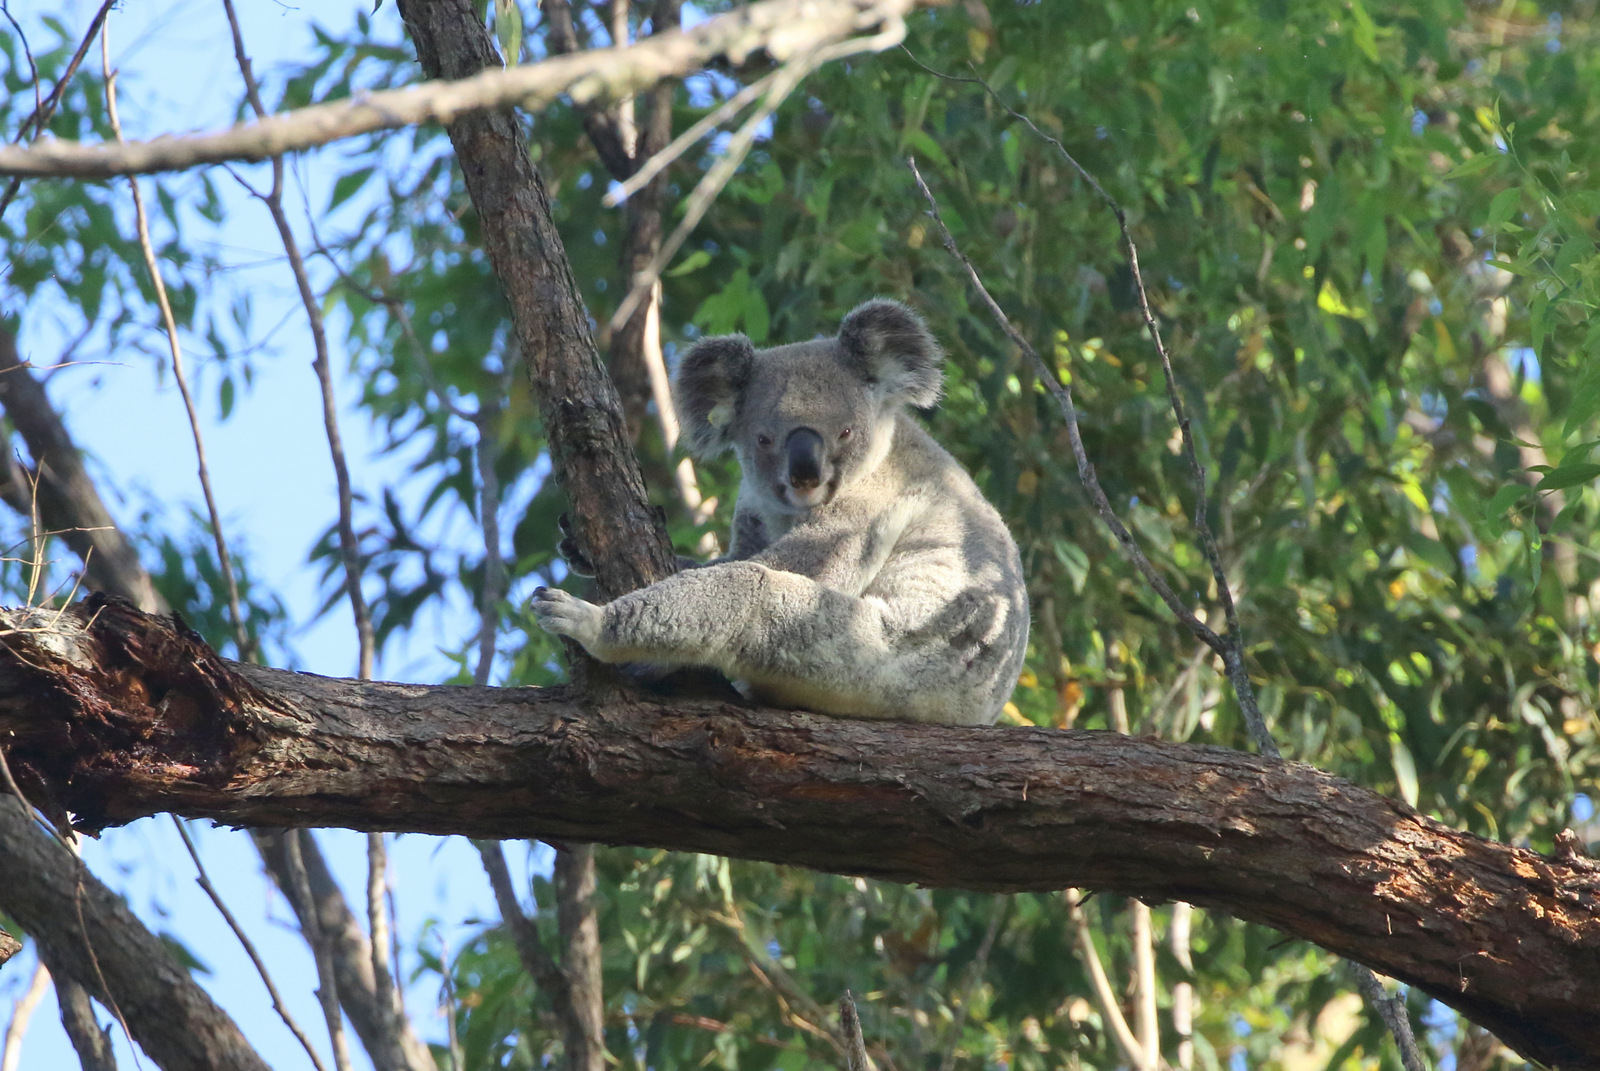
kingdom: Animalia
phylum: Chordata
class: Mammalia
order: Diprotodontia
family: Phascolarctidae
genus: Phascolarctos
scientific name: Phascolarctos cinereus
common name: Koala
